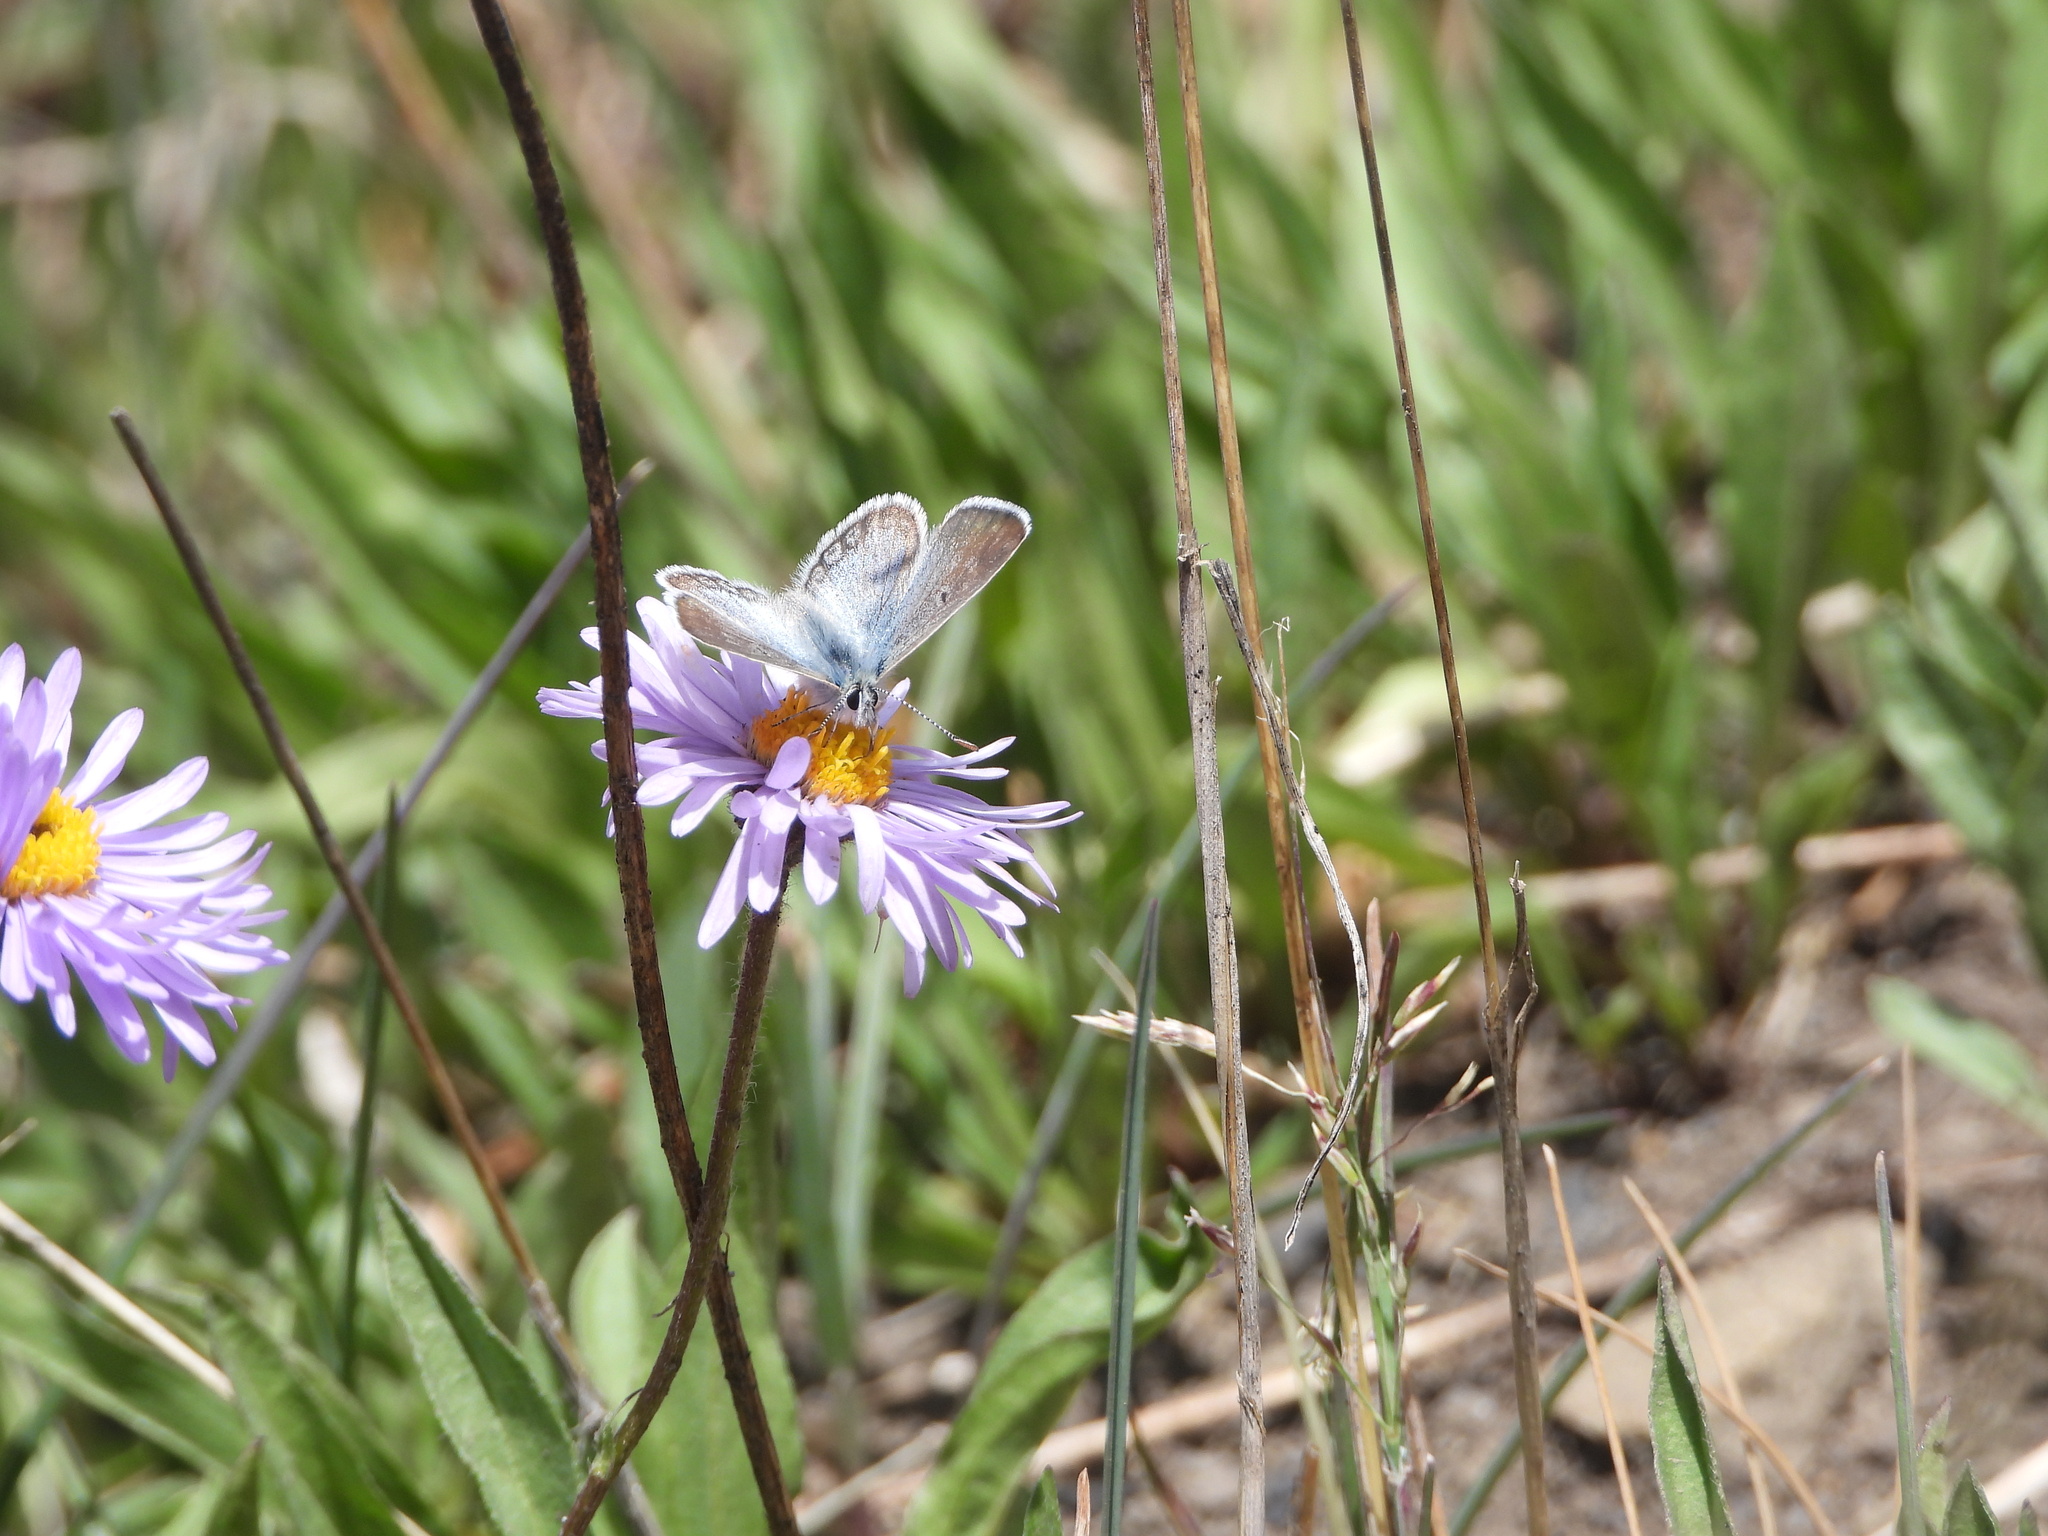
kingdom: Animalia
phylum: Arthropoda
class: Insecta
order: Lepidoptera
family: Lycaenidae
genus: Agriades
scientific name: Agriades glandon
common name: Glandon blue
